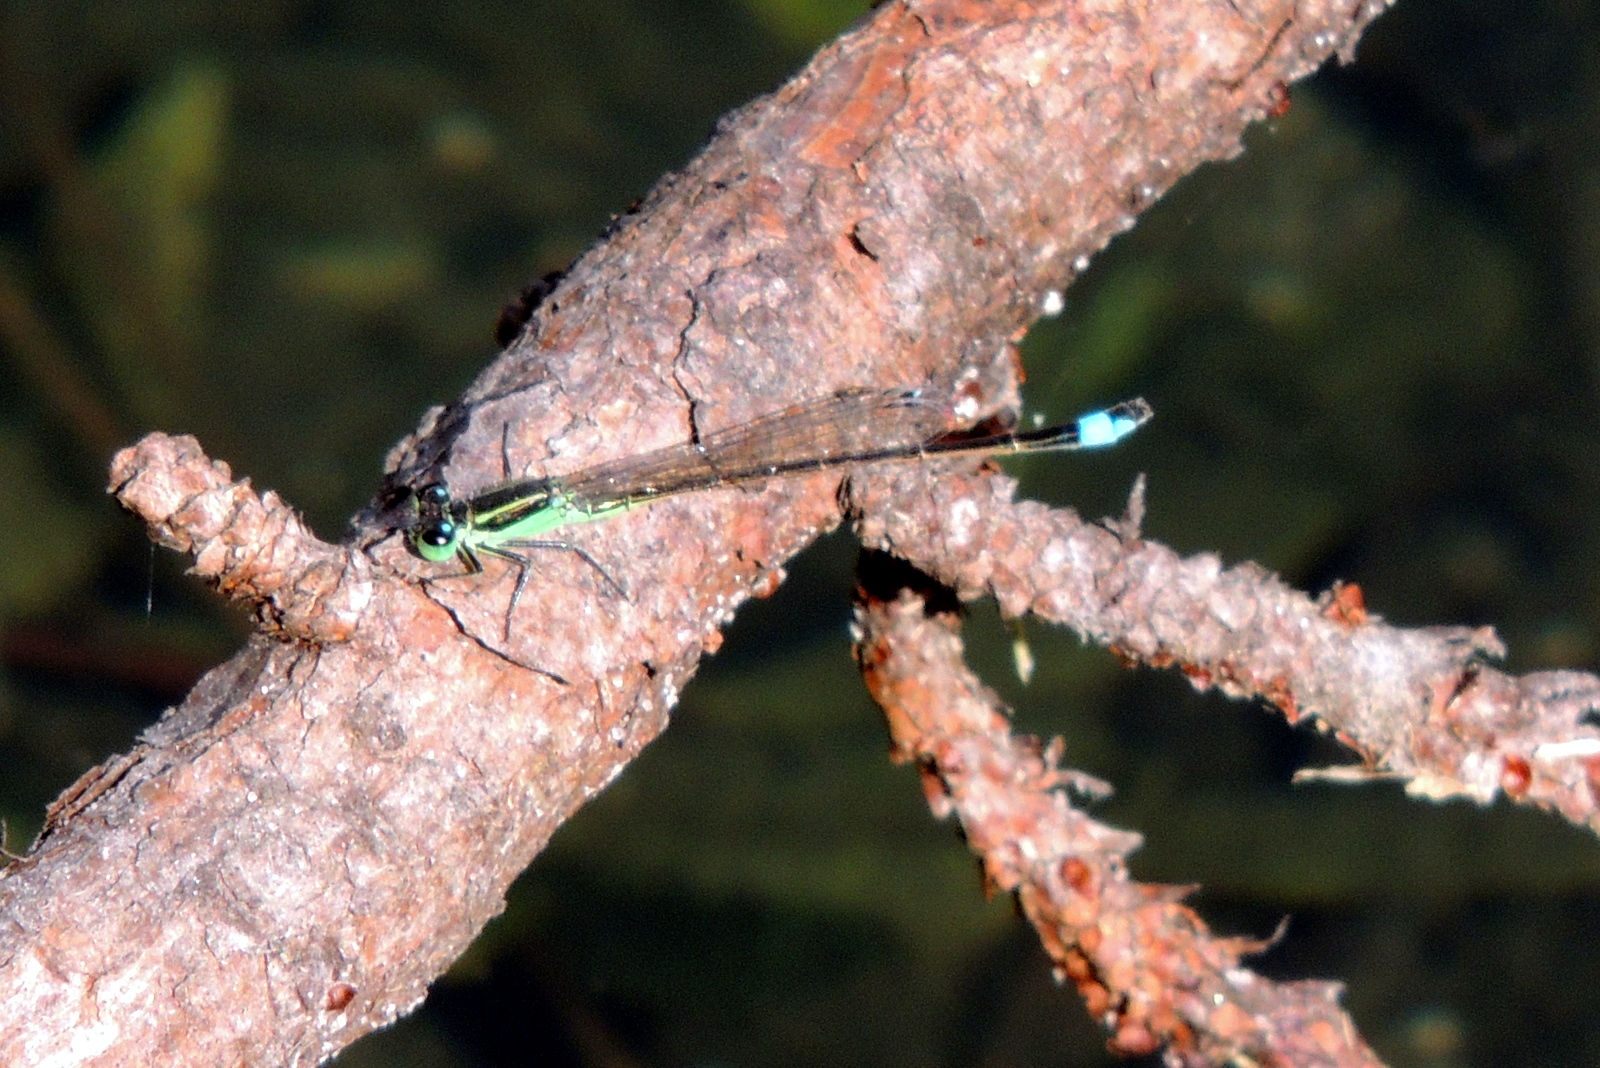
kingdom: Animalia
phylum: Arthropoda
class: Insecta
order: Odonata
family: Coenagrionidae
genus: Ischnura
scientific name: Ischnura ramburii
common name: Rambur's forktail
